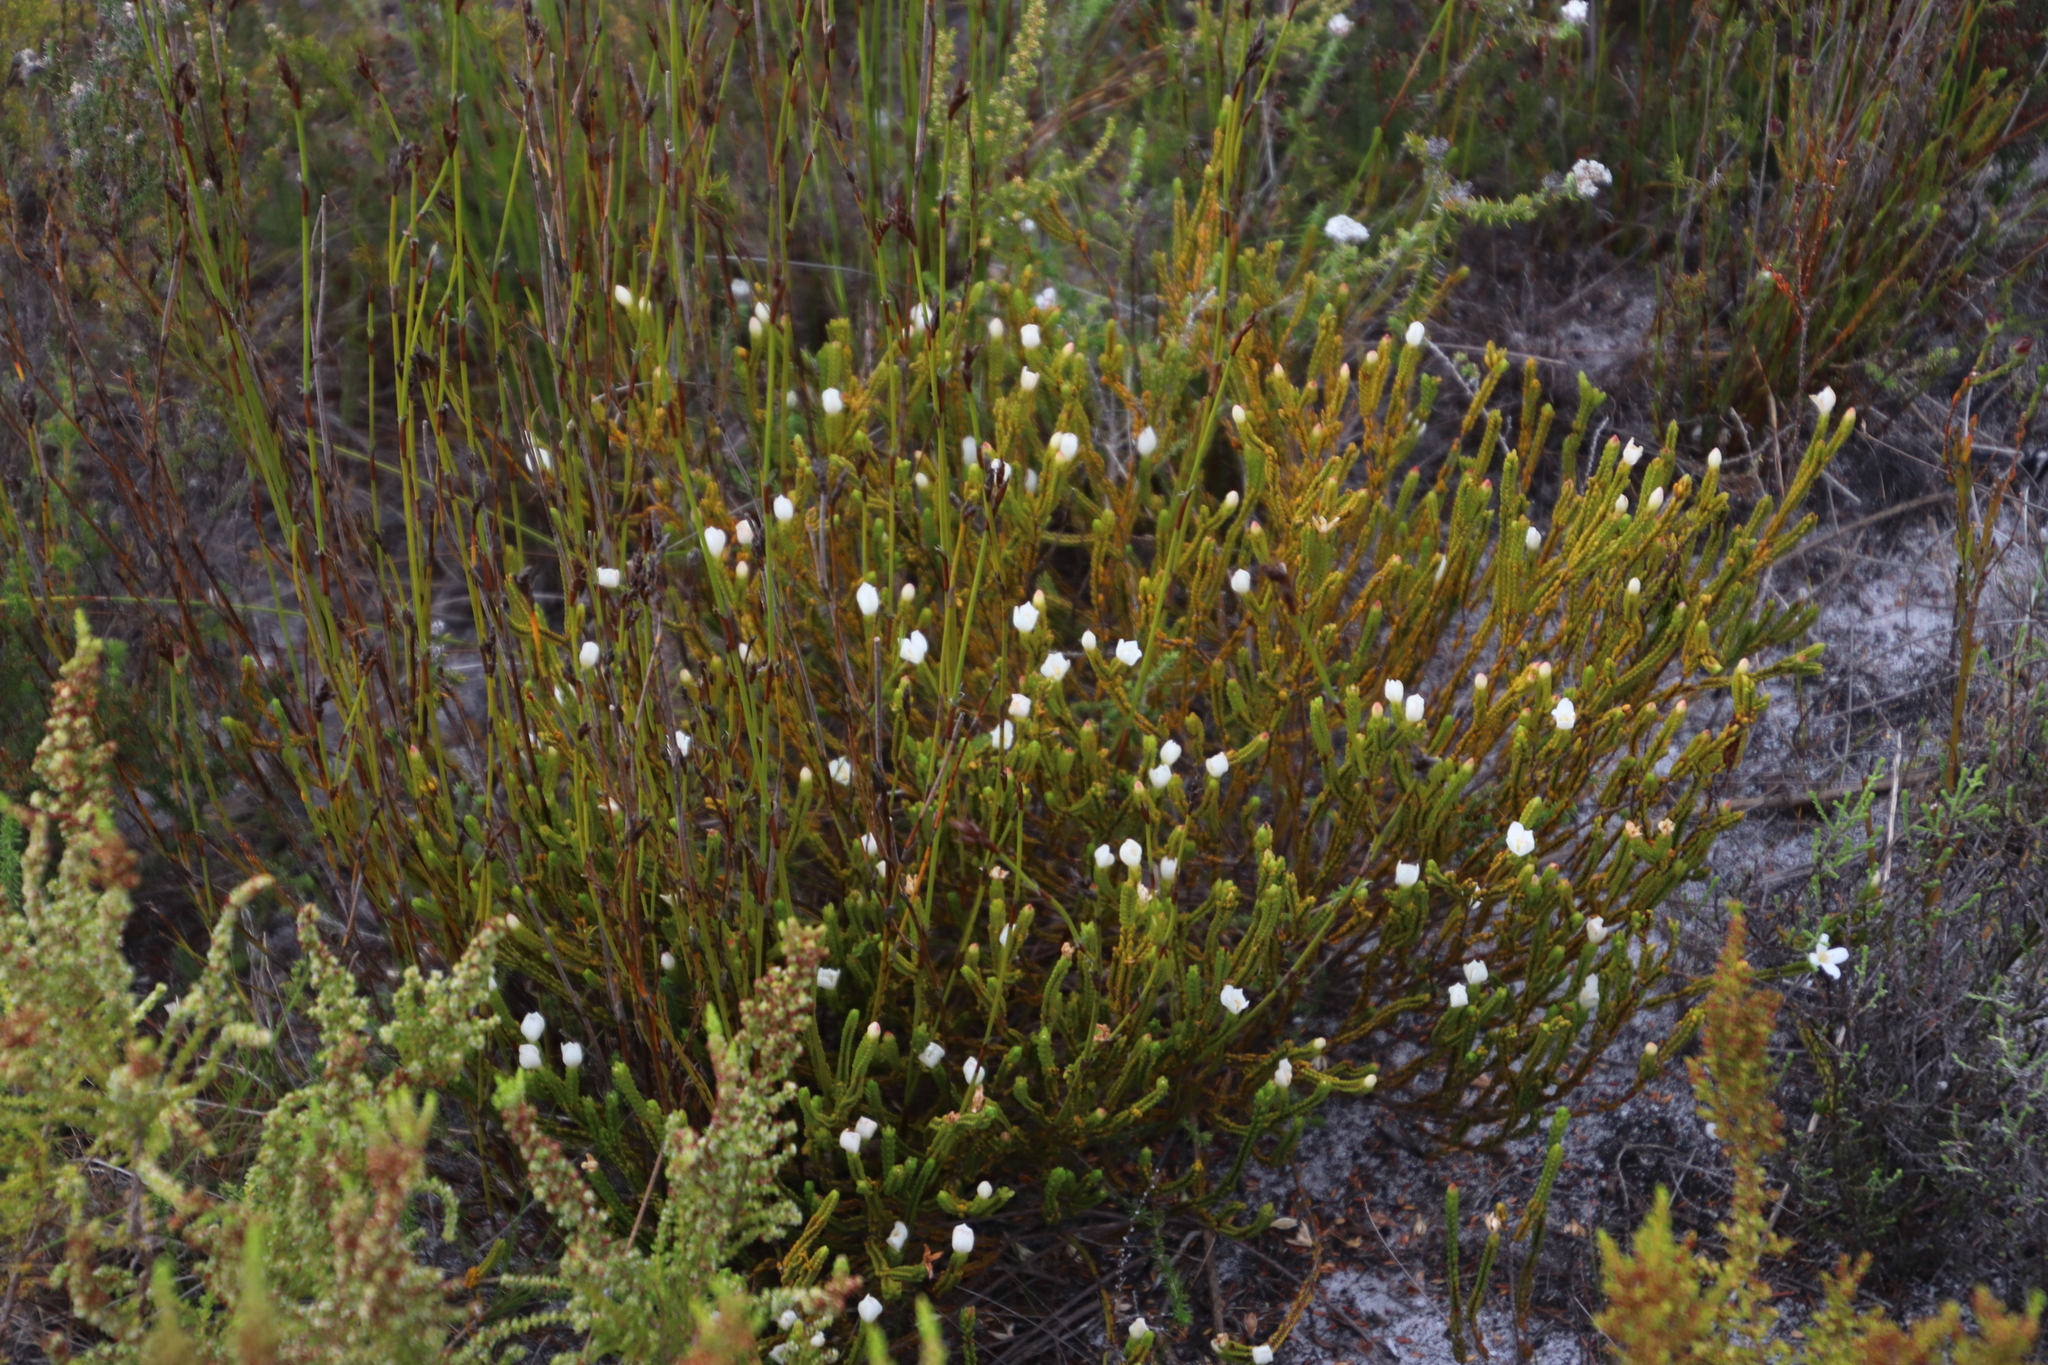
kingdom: Plantae
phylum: Tracheophyta
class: Magnoliopsida
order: Malvales
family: Thymelaeaceae
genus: Lachnaea
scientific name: Lachnaea grandiflora
